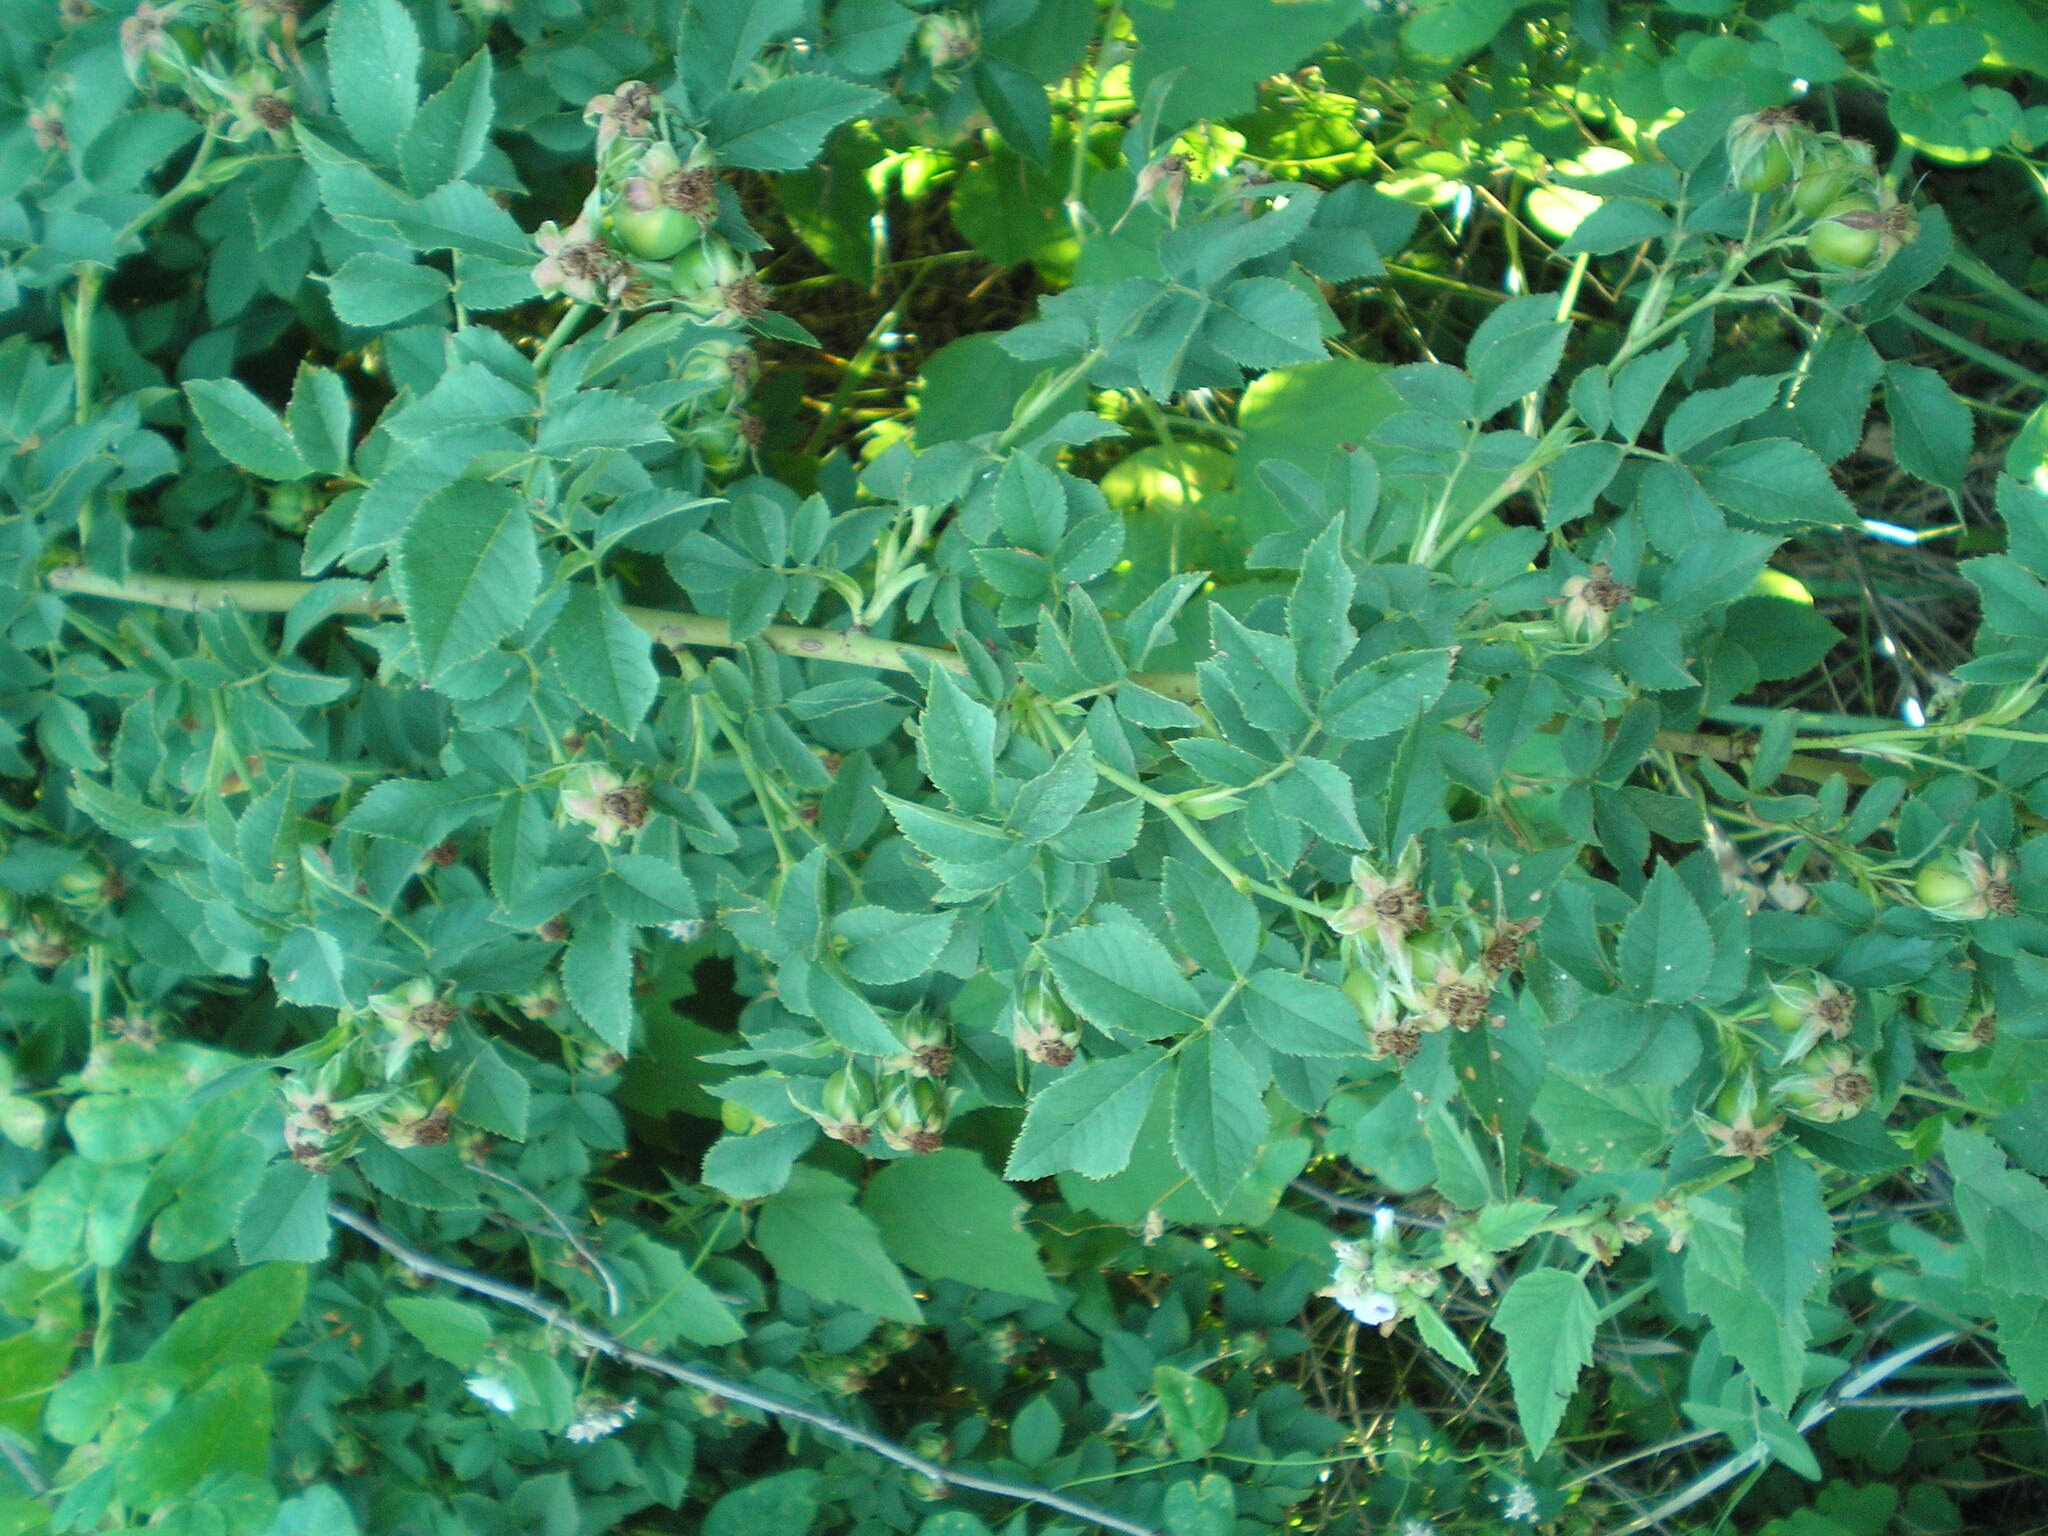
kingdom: Plantae
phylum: Tracheophyta
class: Magnoliopsida
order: Rosales
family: Rosaceae
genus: Rosa
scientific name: Rosa corymbifera
